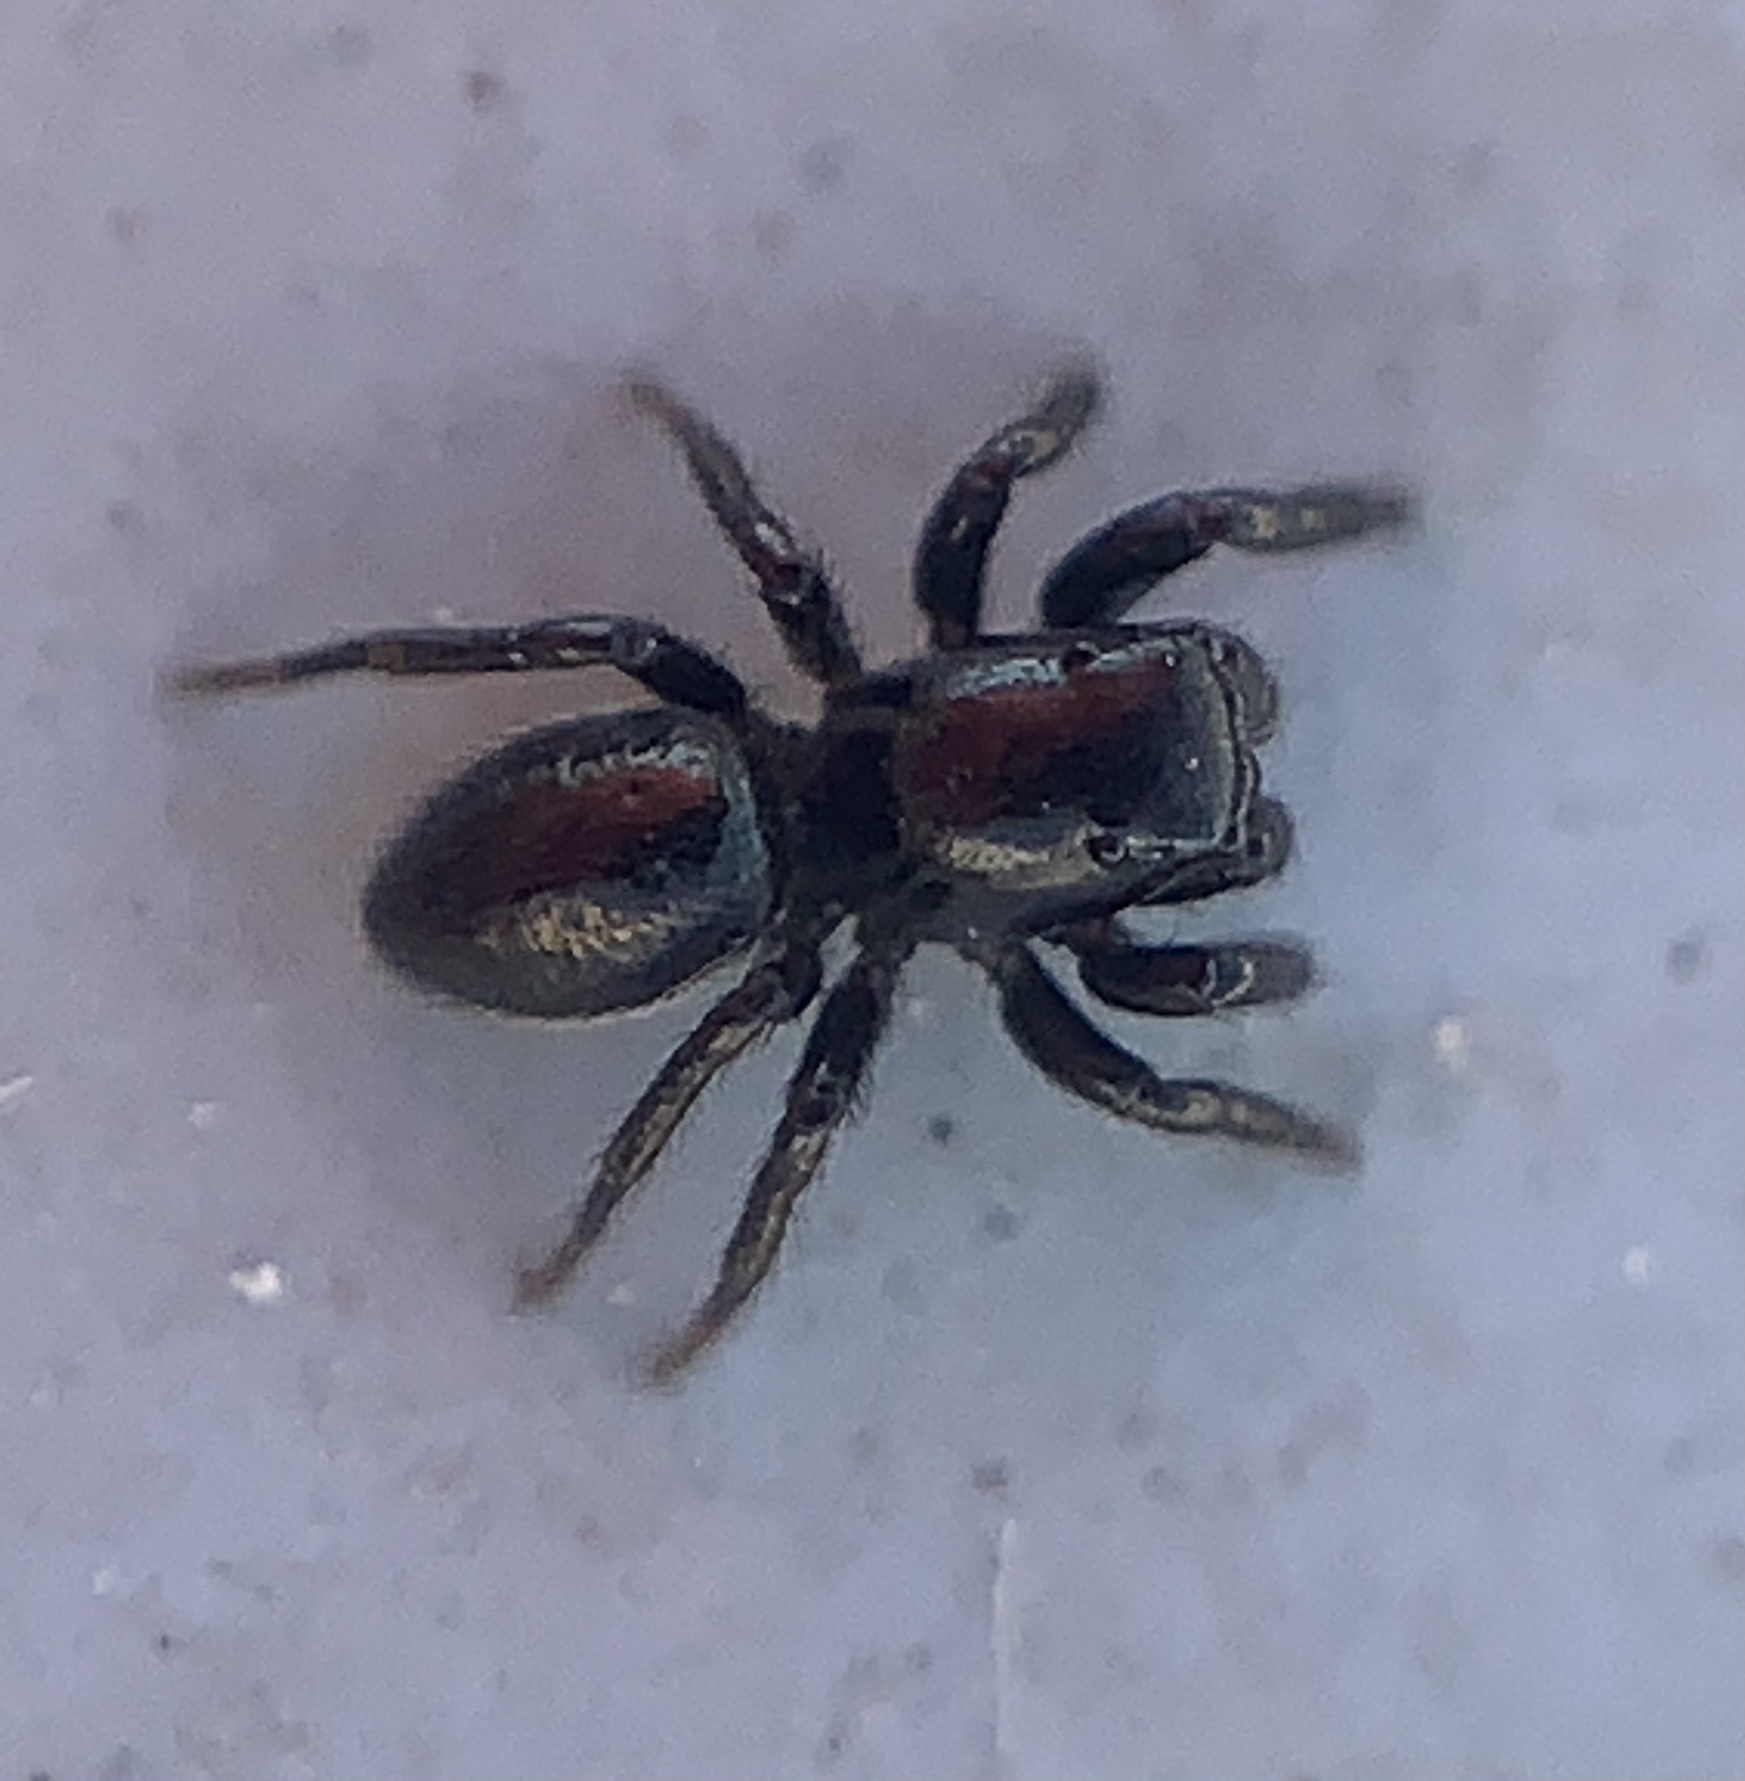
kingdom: Animalia
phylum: Arthropoda
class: Arachnida
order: Araneae
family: Salticidae
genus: Chalcoscirtus
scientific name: Chalcoscirtus
